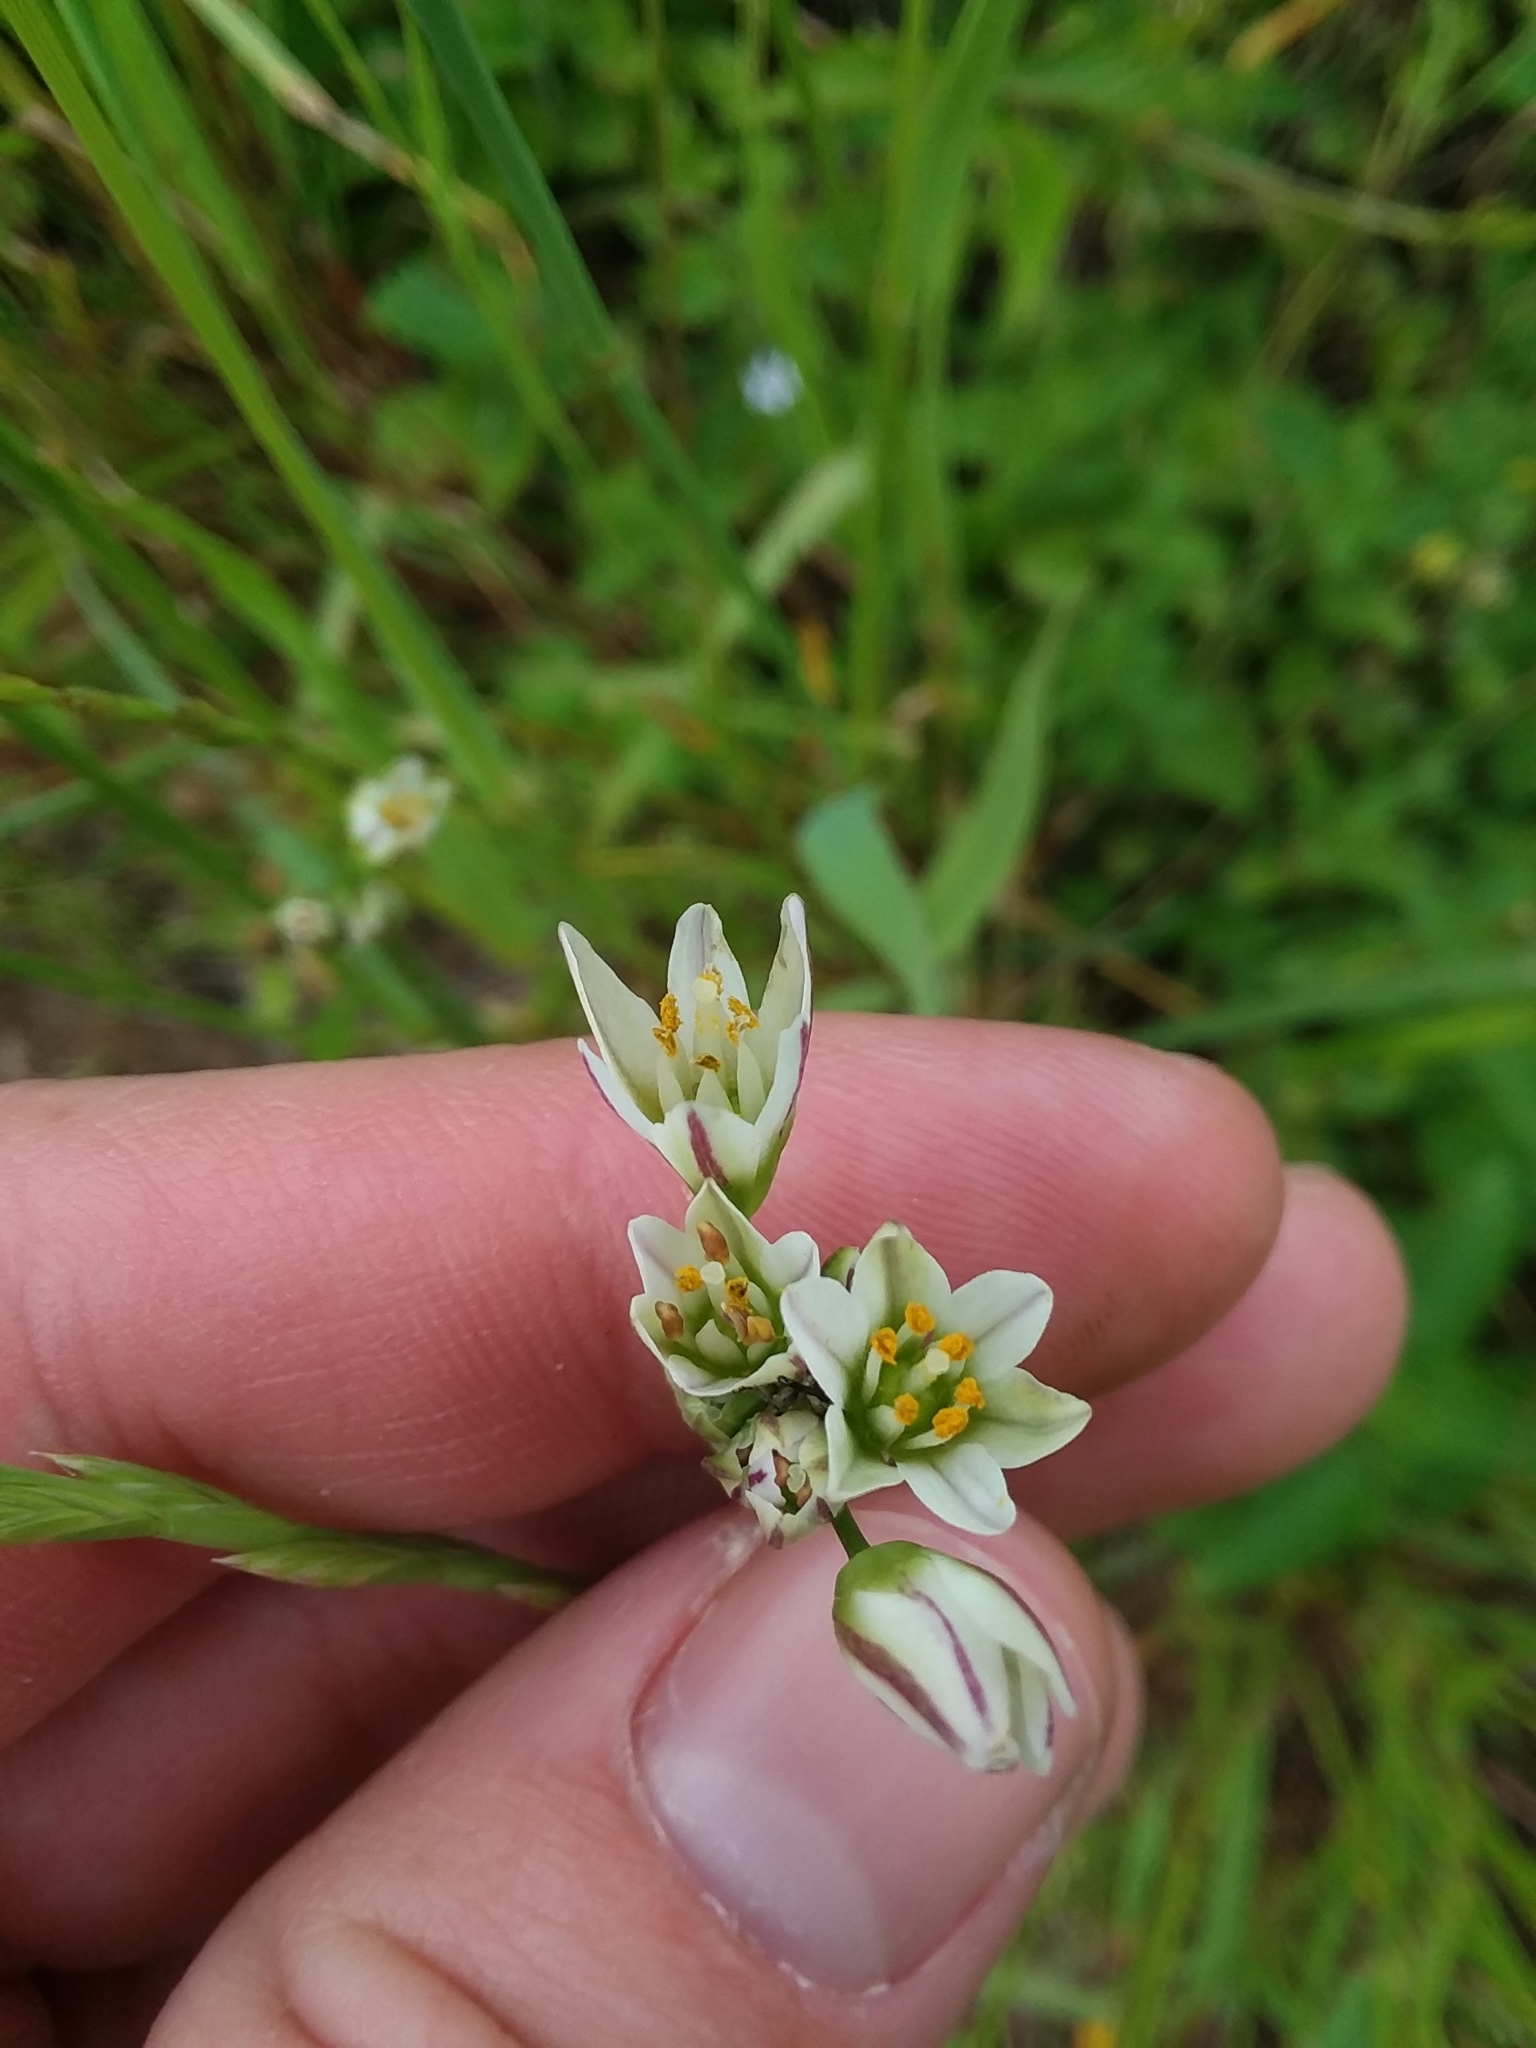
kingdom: Plantae
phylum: Tracheophyta
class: Liliopsida
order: Asparagales
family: Amaryllidaceae
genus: Nothoscordum
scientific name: Nothoscordum gracile
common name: Slender false garlic
